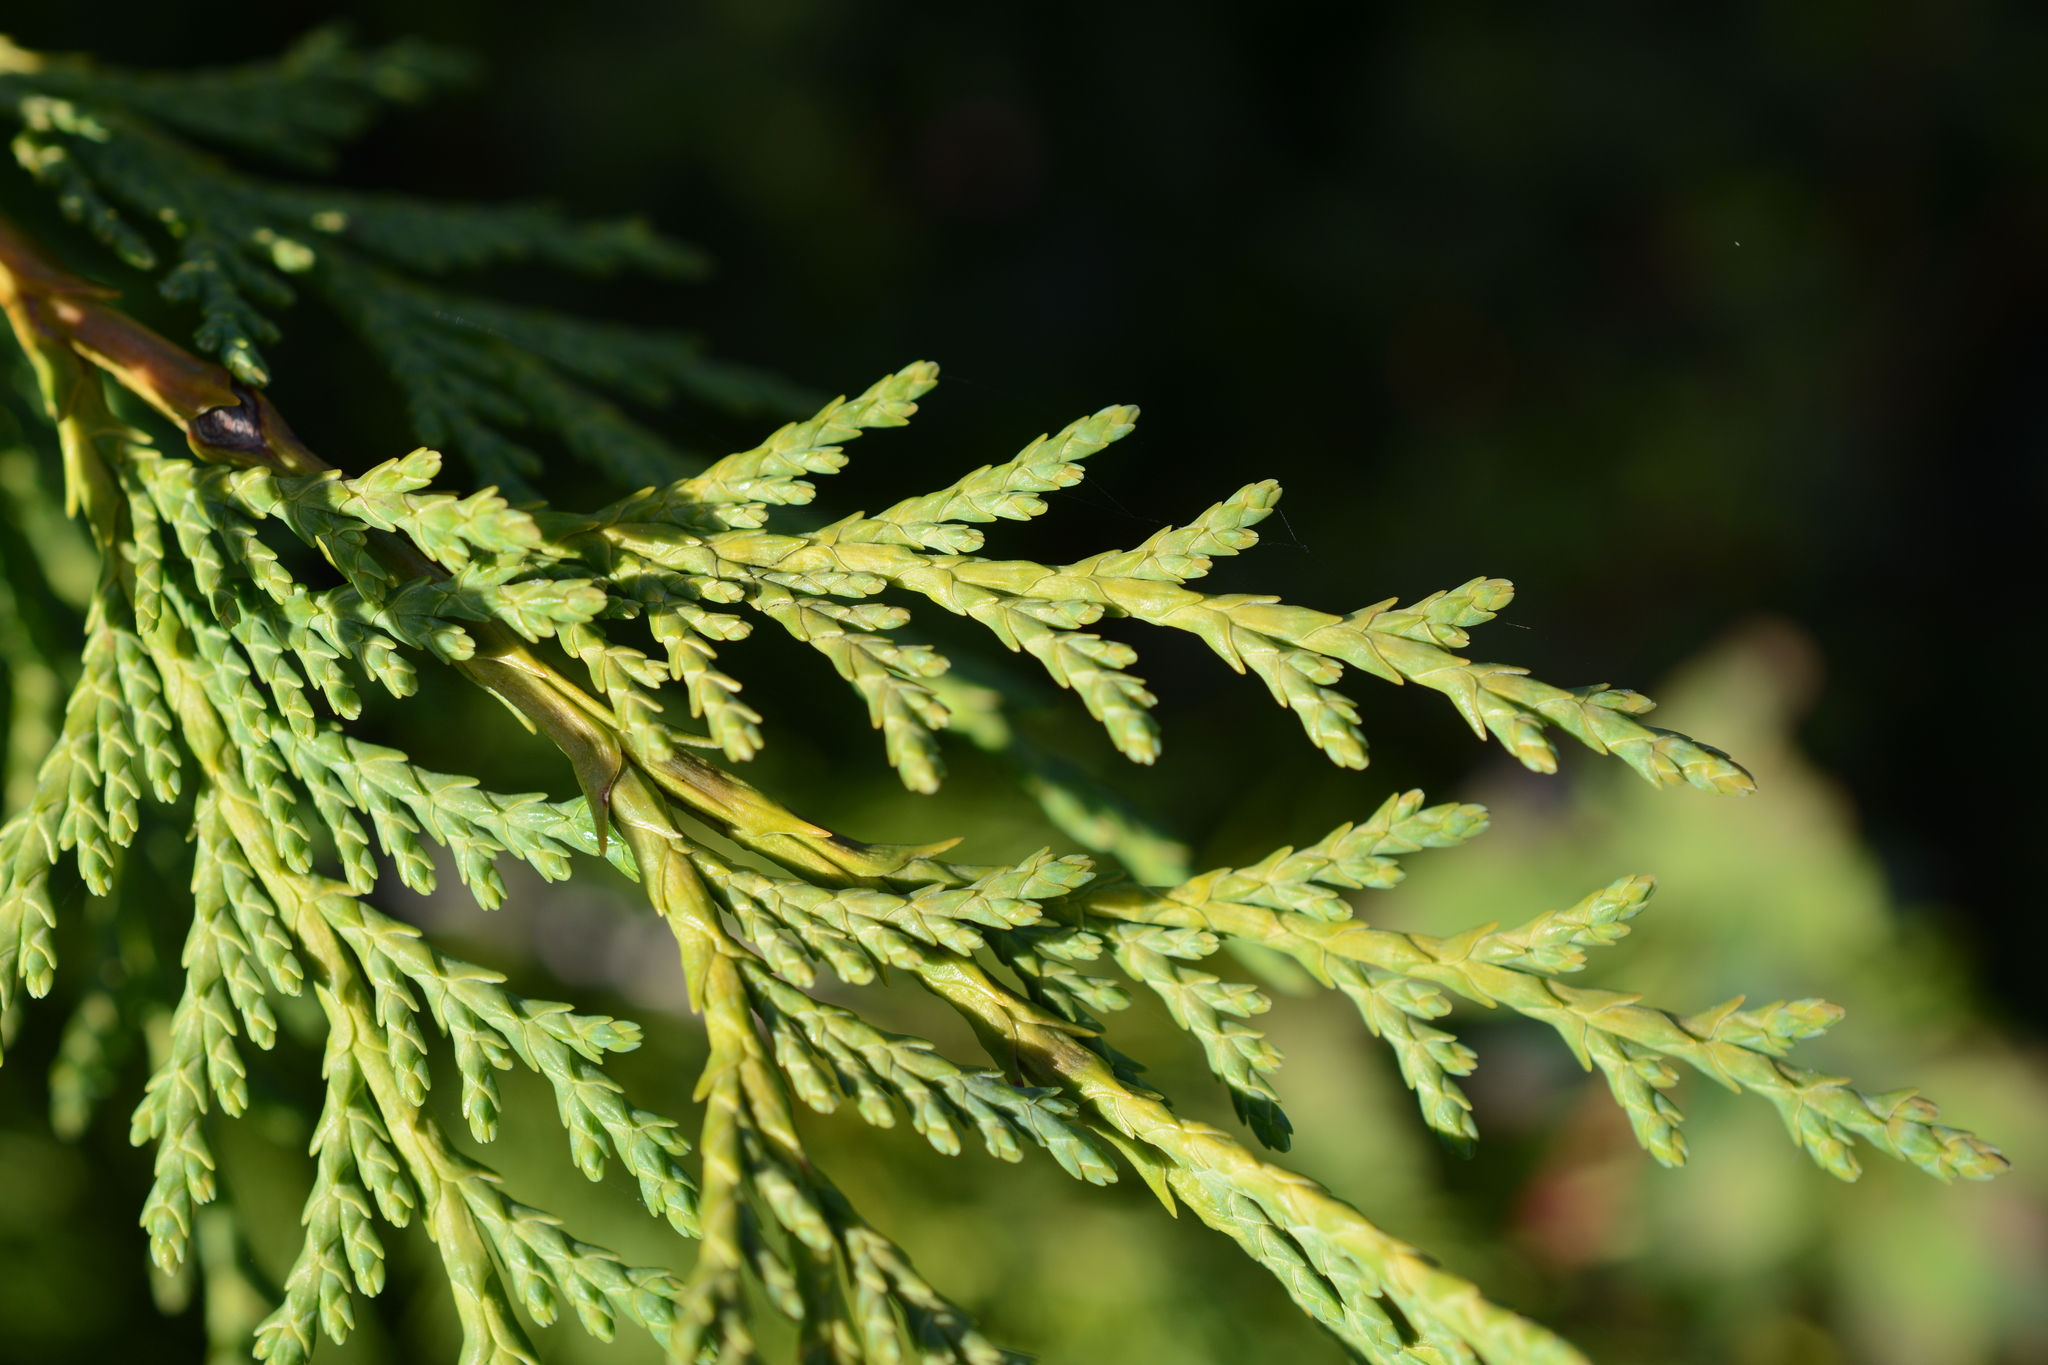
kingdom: Plantae
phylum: Tracheophyta
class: Pinopsida
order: Pinales
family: Cupressaceae
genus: Xanthocyparis
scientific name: Xanthocyparis nootkatensis
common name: Nootka cypress
